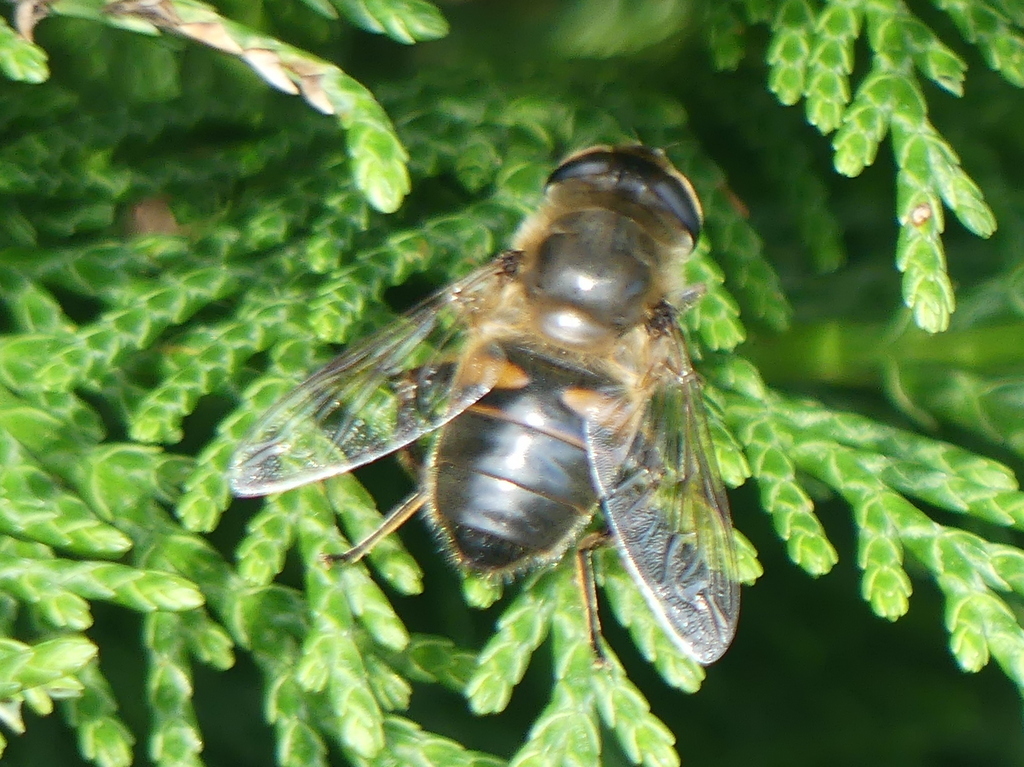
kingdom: Animalia
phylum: Arthropoda
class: Insecta
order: Diptera
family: Syrphidae
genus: Eristalis
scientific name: Eristalis tenax
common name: Drone fly
